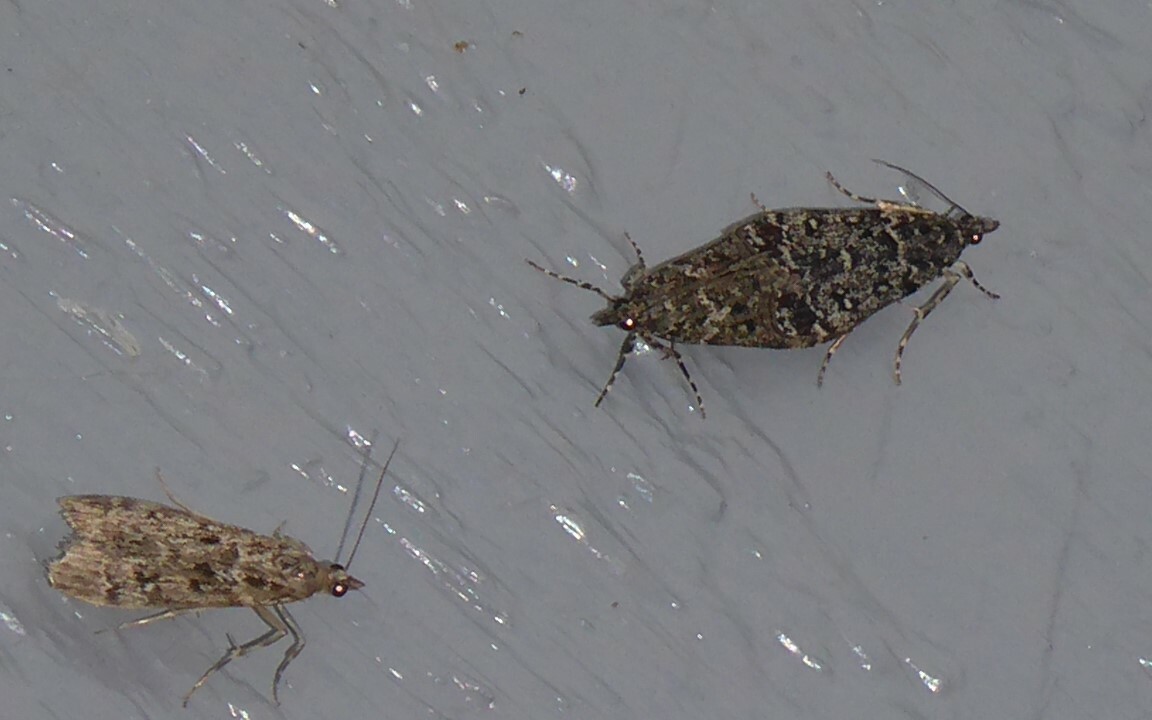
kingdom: Animalia
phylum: Arthropoda
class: Insecta
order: Lepidoptera
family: Crambidae
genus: Eudonia
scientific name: Eudonia philerga
